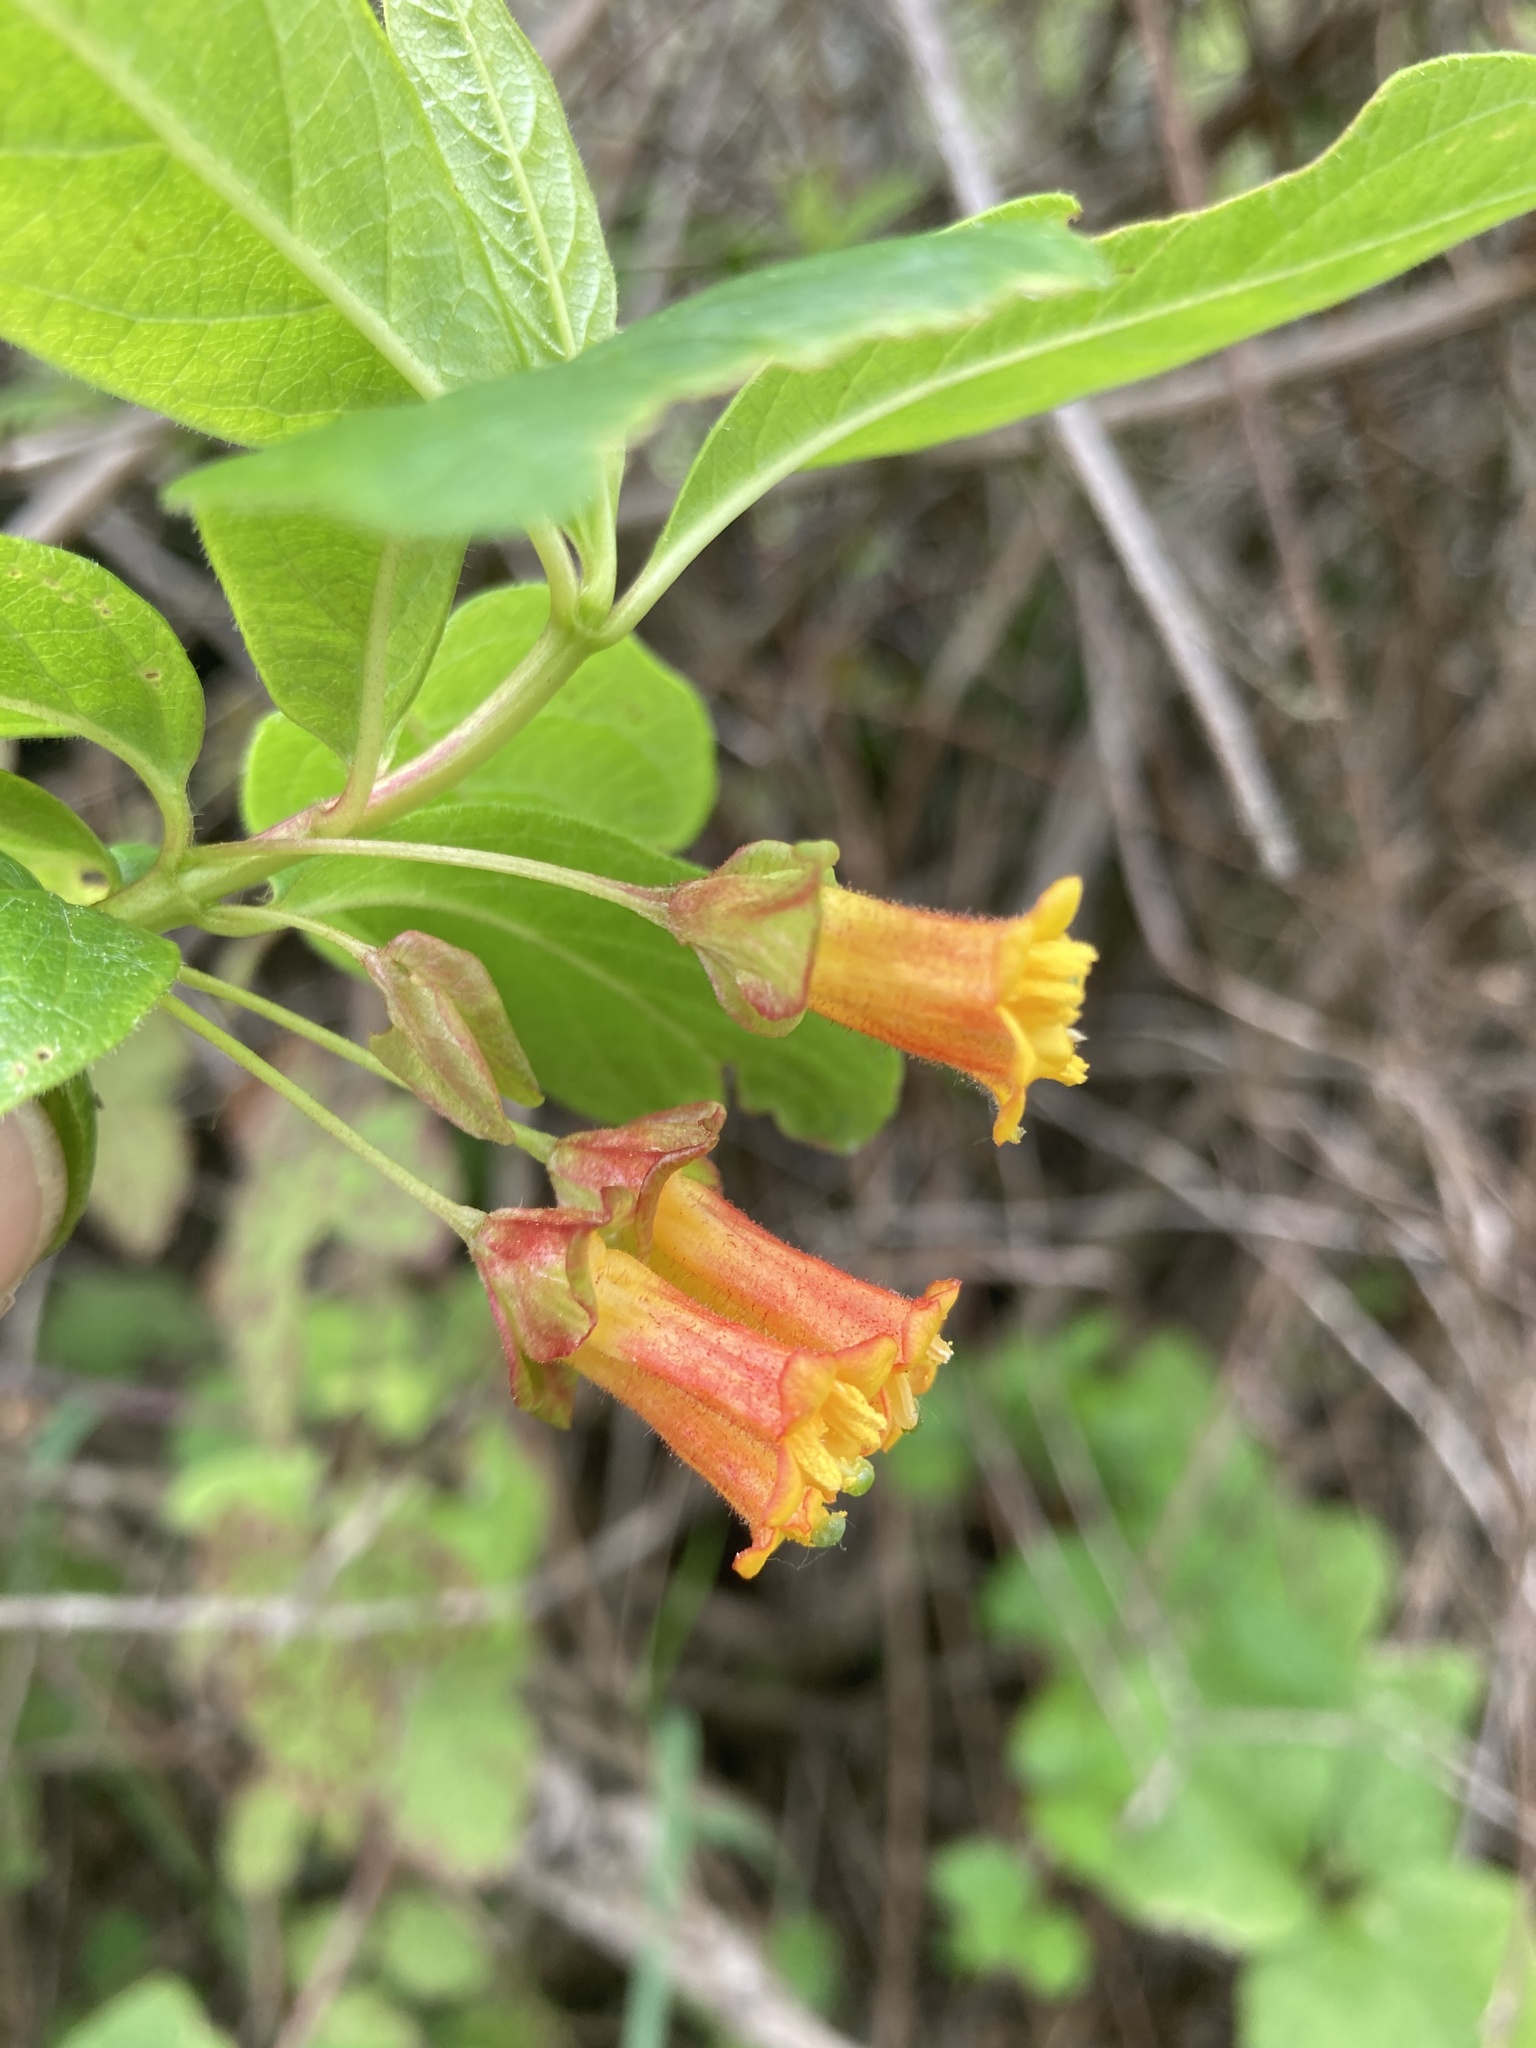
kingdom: Plantae
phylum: Tracheophyta
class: Magnoliopsida
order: Dipsacales
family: Caprifoliaceae
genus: Lonicera
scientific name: Lonicera involucrata
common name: Californian honeysuckle
